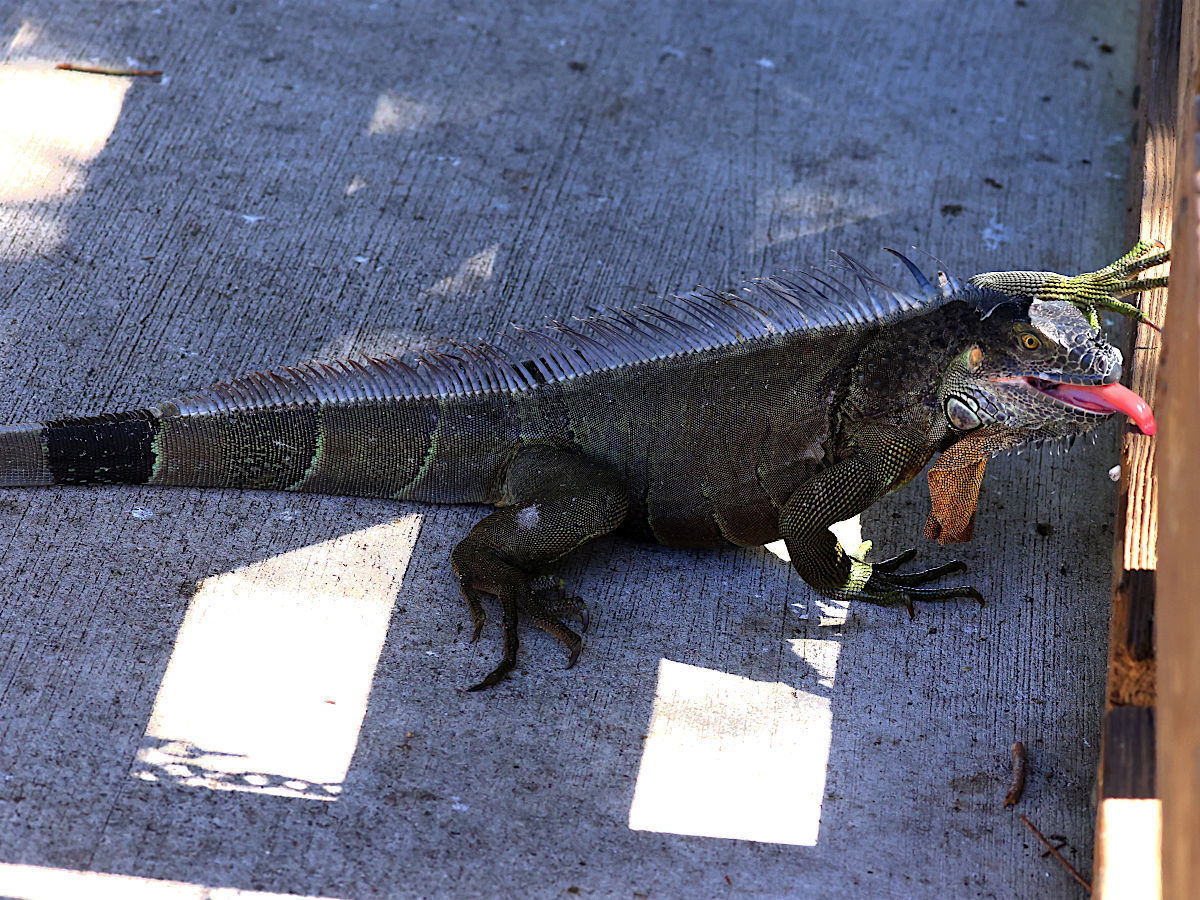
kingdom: Animalia
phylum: Chordata
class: Squamata
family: Iguanidae
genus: Iguana
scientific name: Iguana iguana
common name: Green iguana
